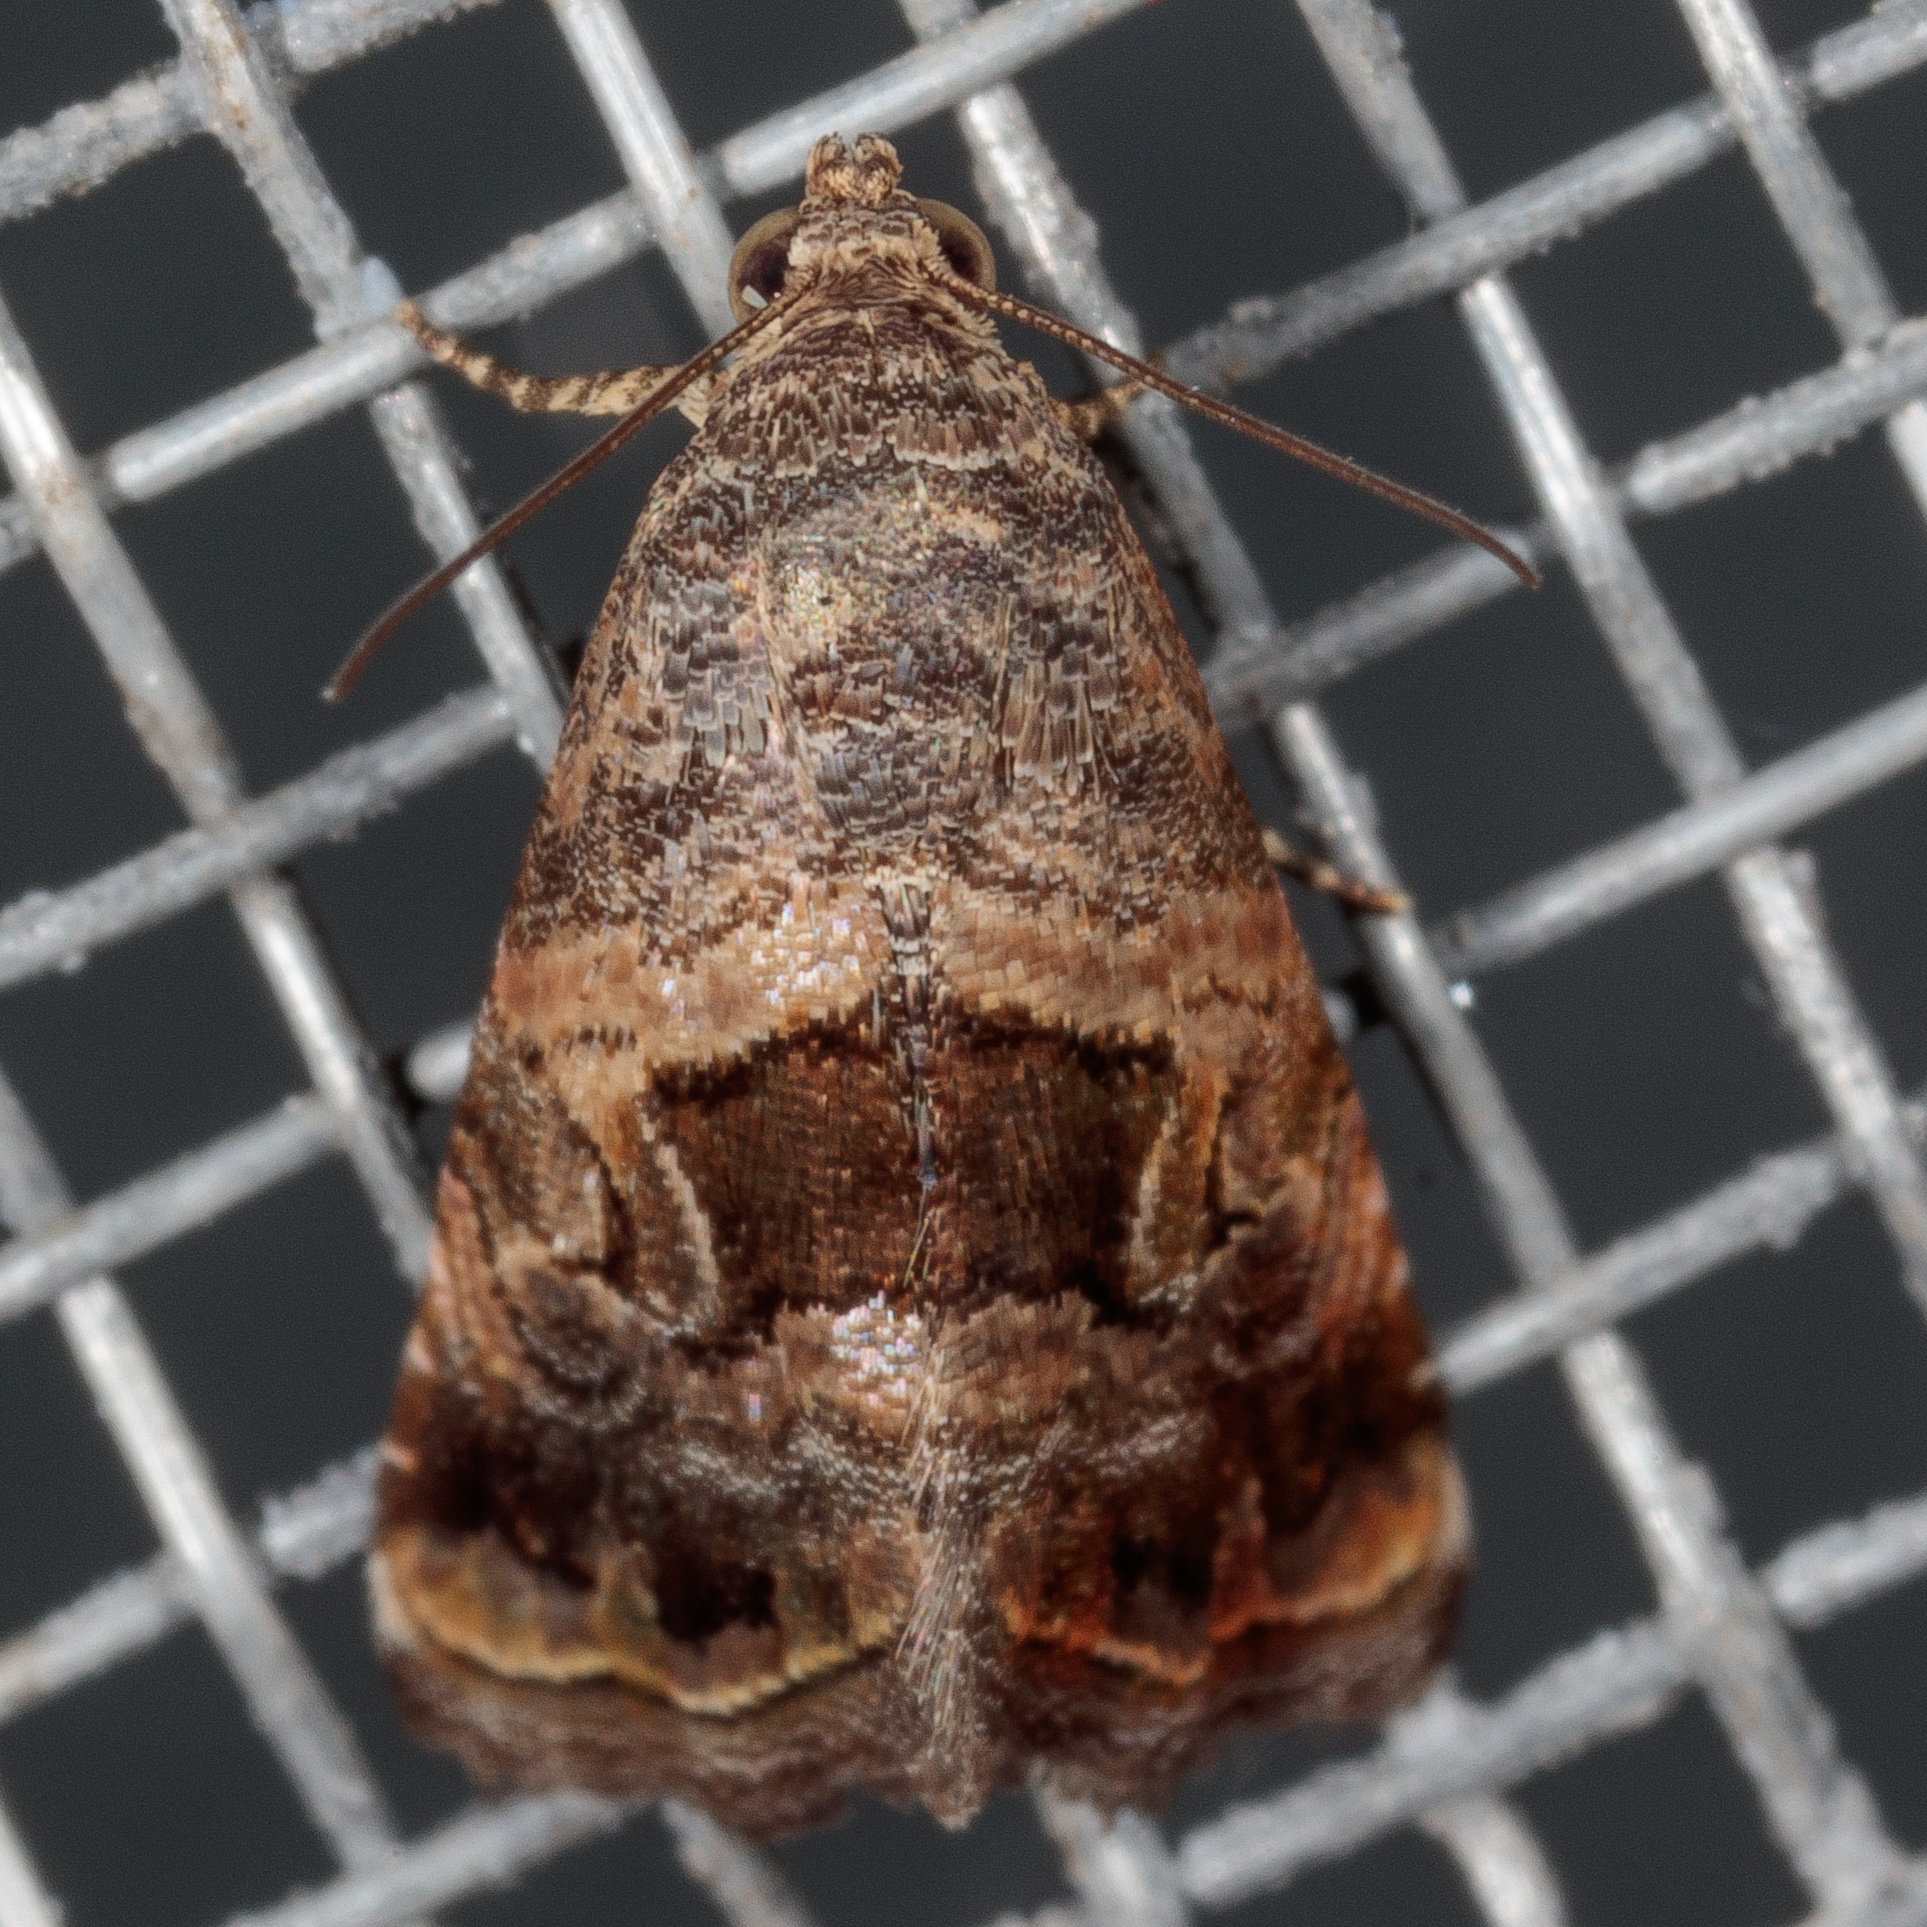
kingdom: Animalia
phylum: Arthropoda
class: Insecta
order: Lepidoptera
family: Noctuidae
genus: Tripudia
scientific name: Tripudia quadrifera
